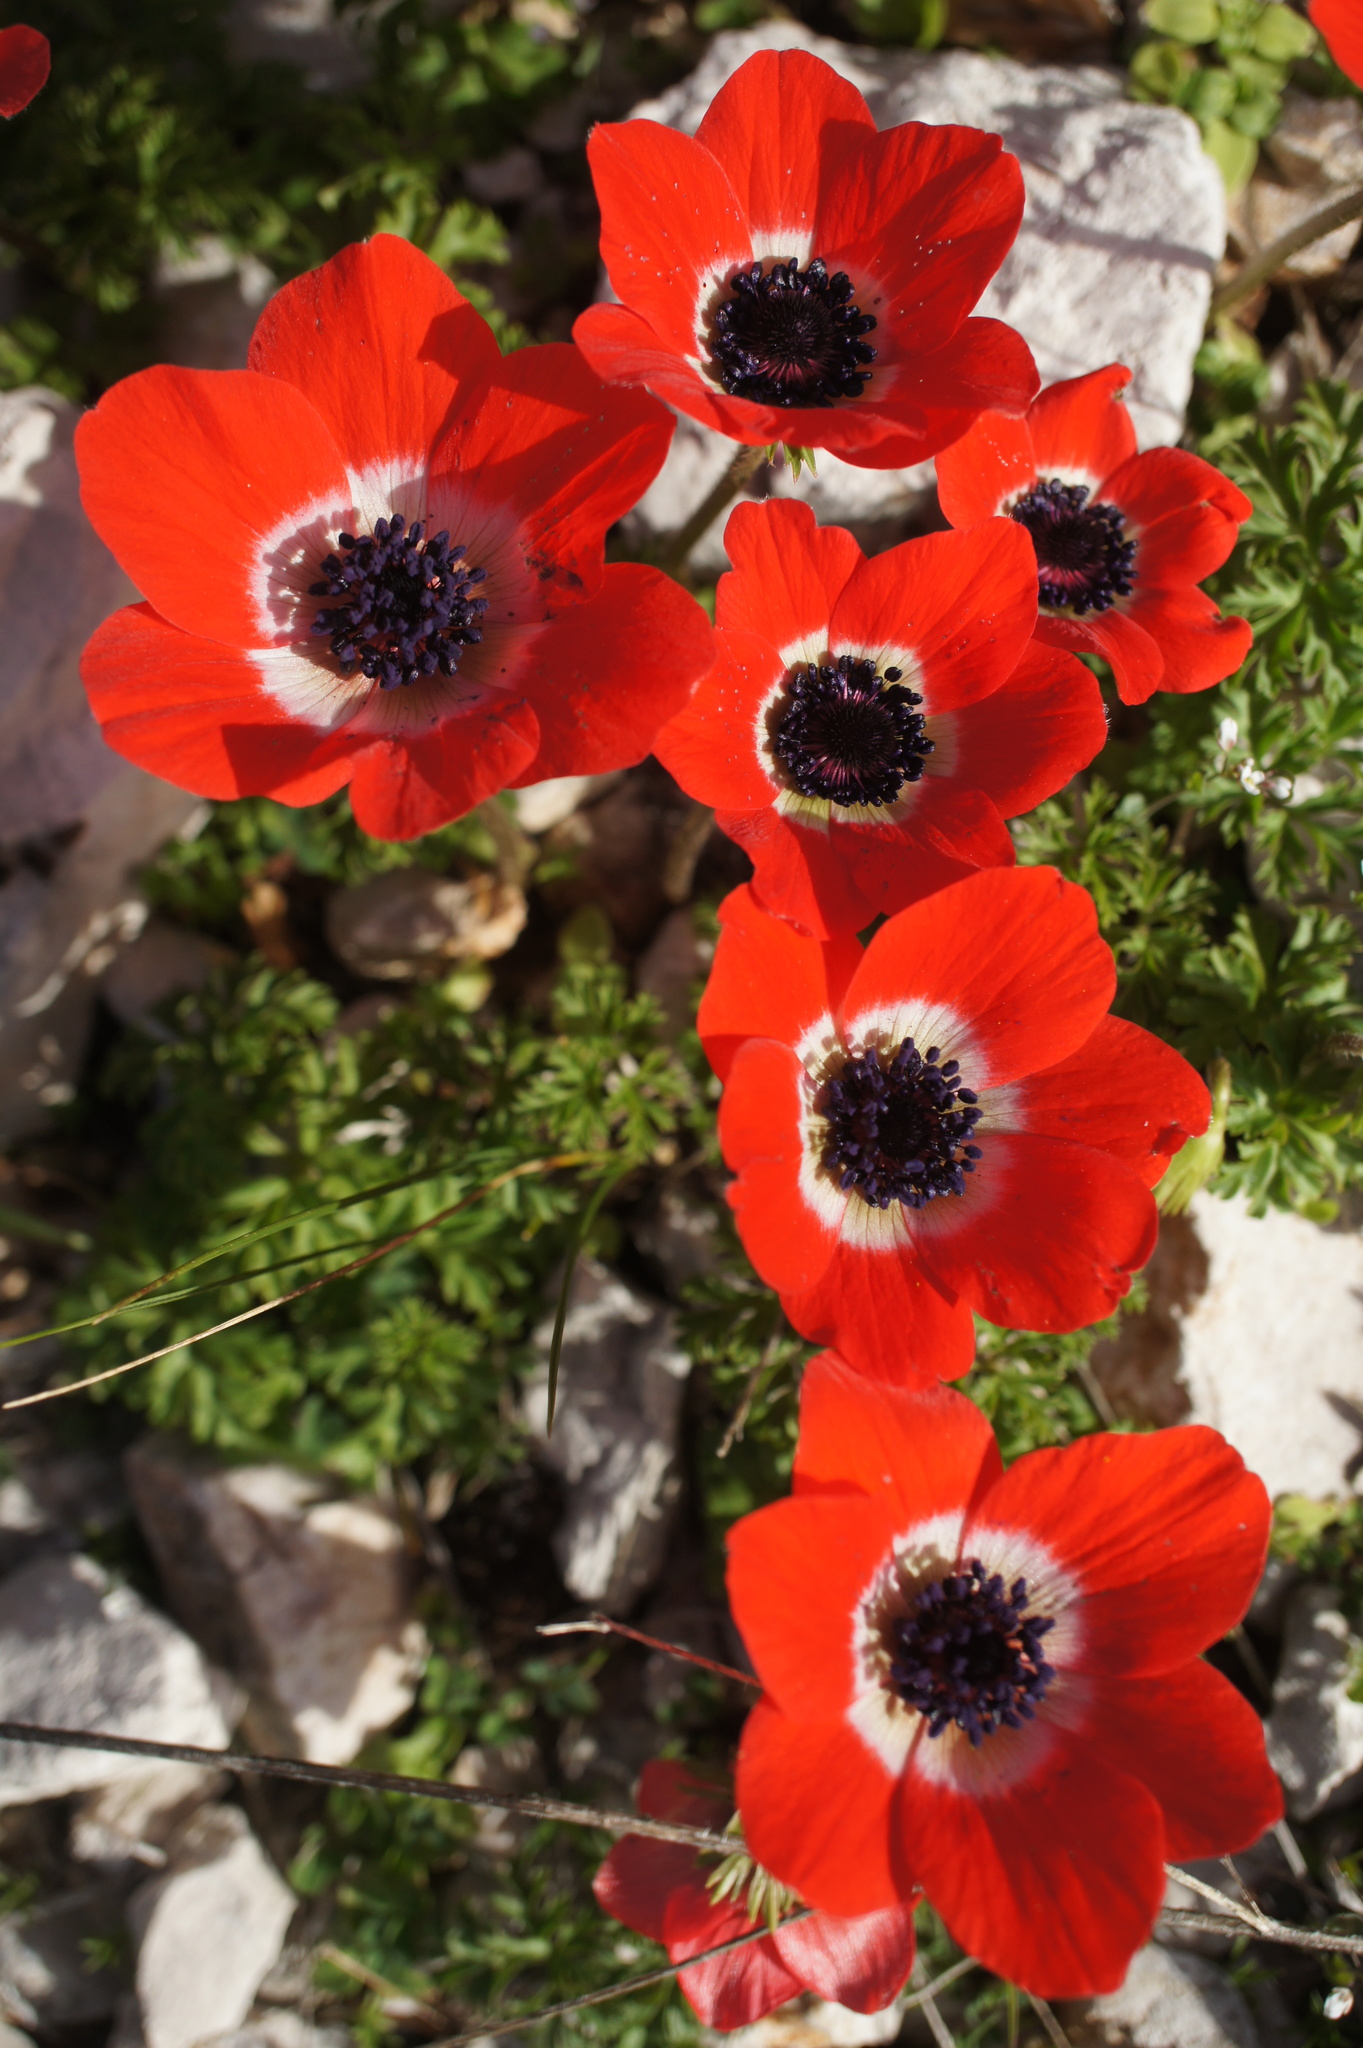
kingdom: Plantae
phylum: Tracheophyta
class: Magnoliopsida
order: Ranunculales
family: Ranunculaceae
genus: Anemone
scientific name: Anemone coronaria
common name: Poppy anemone
